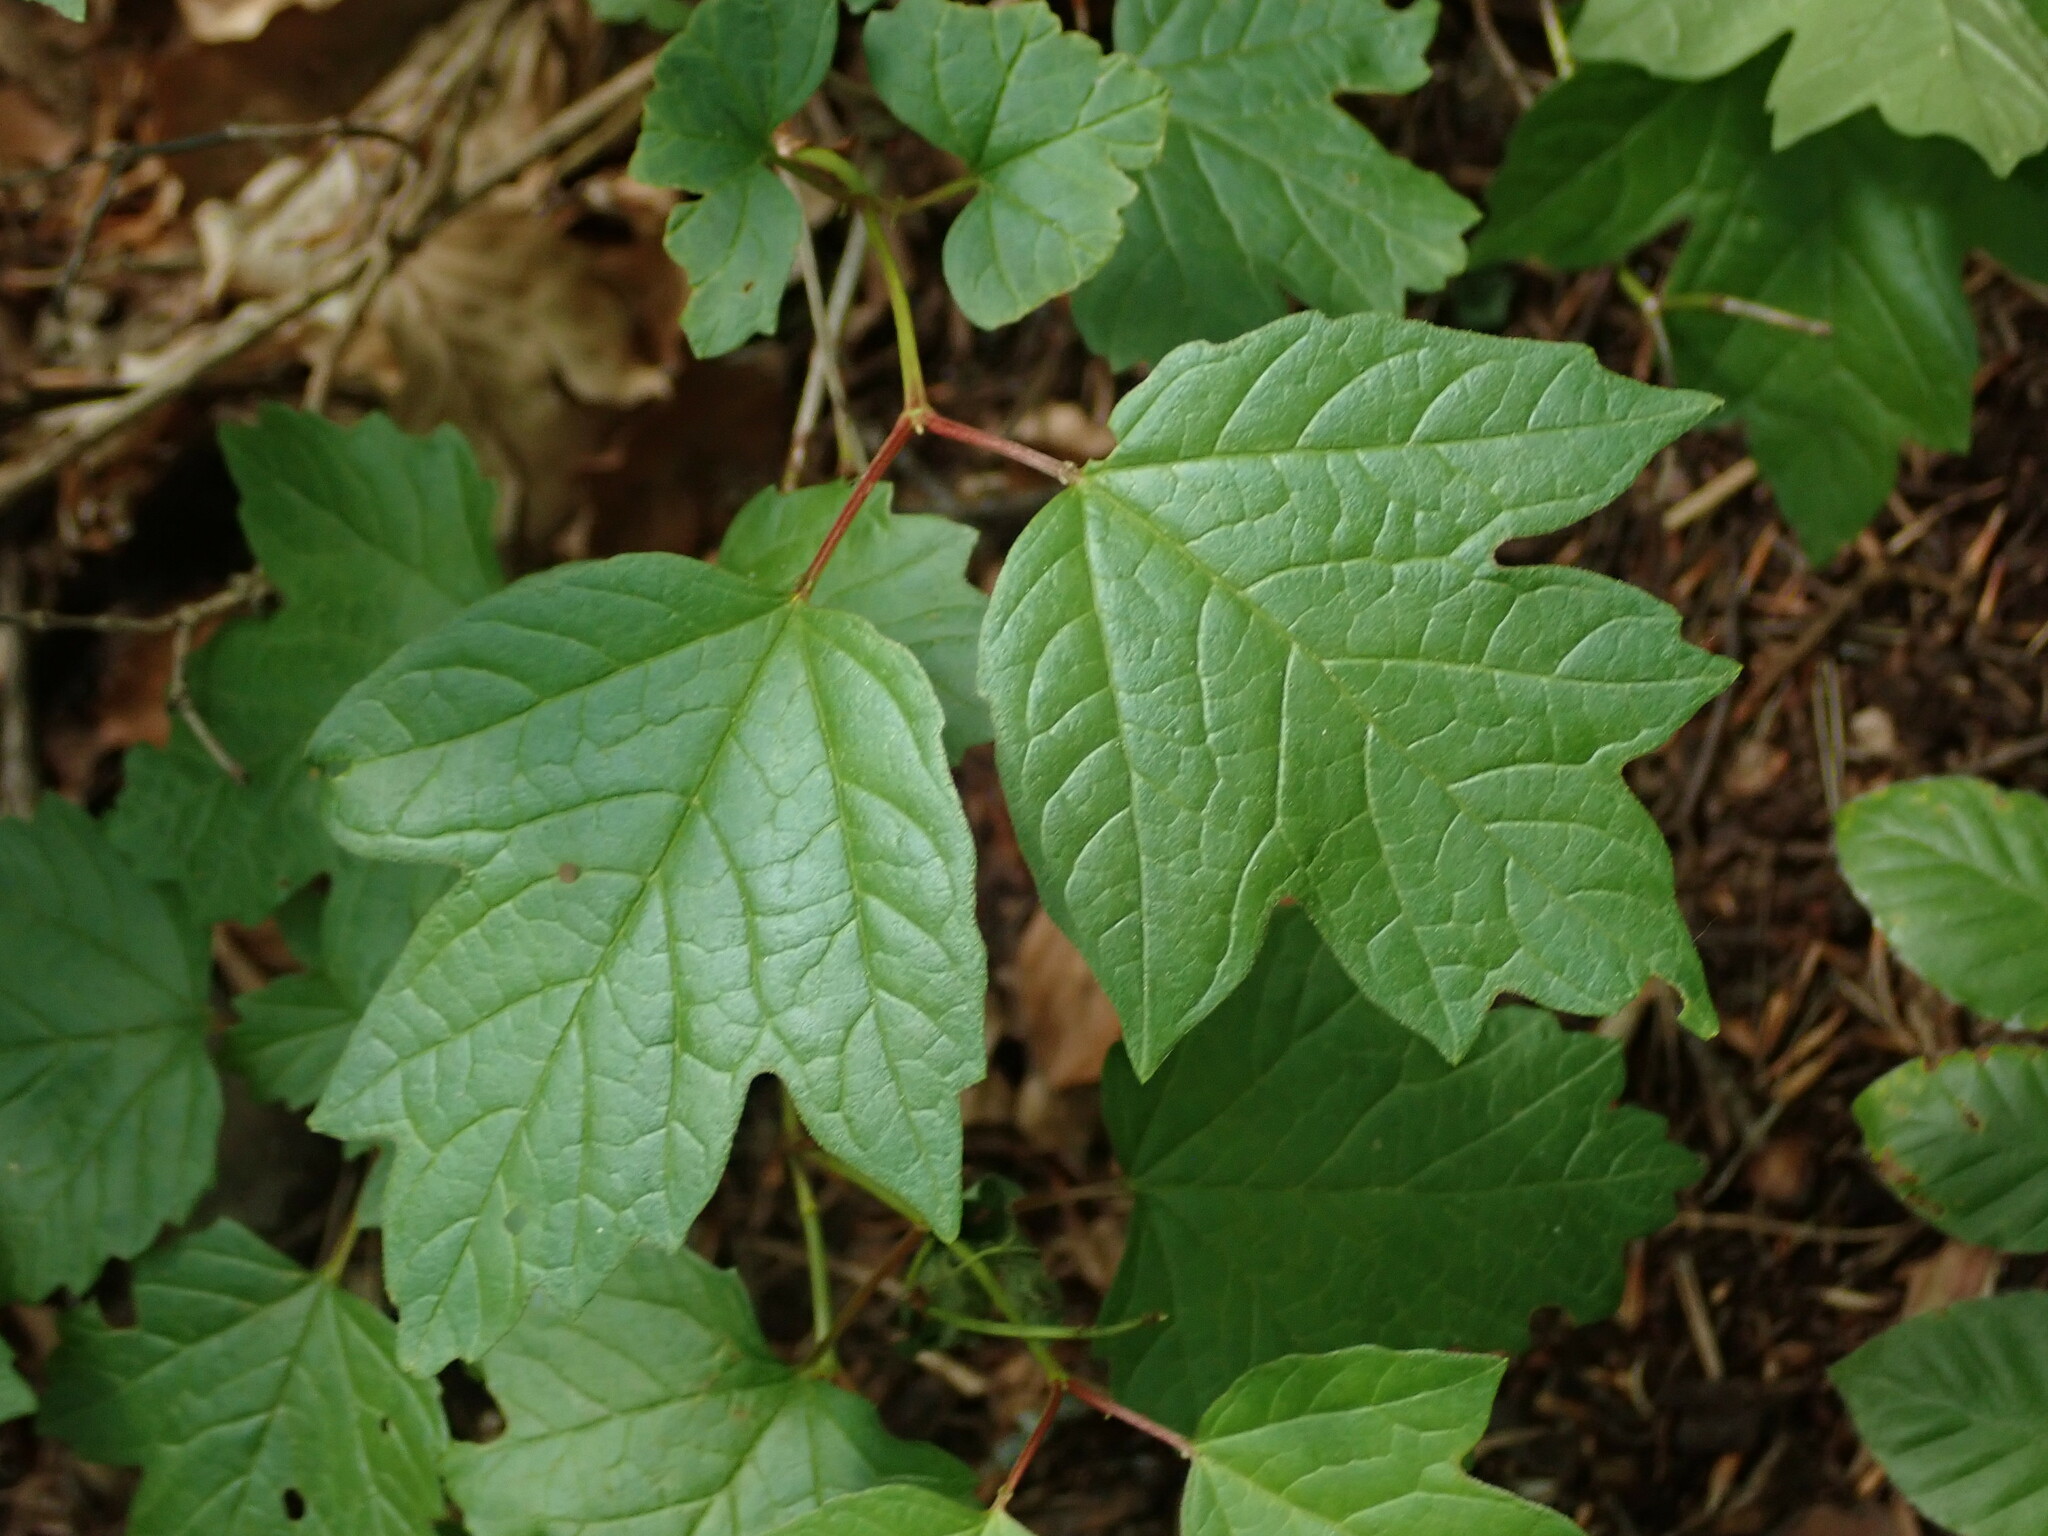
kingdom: Plantae
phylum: Tracheophyta
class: Magnoliopsida
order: Dipsacales
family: Viburnaceae
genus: Viburnum
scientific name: Viburnum opulus
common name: Guelder-rose
